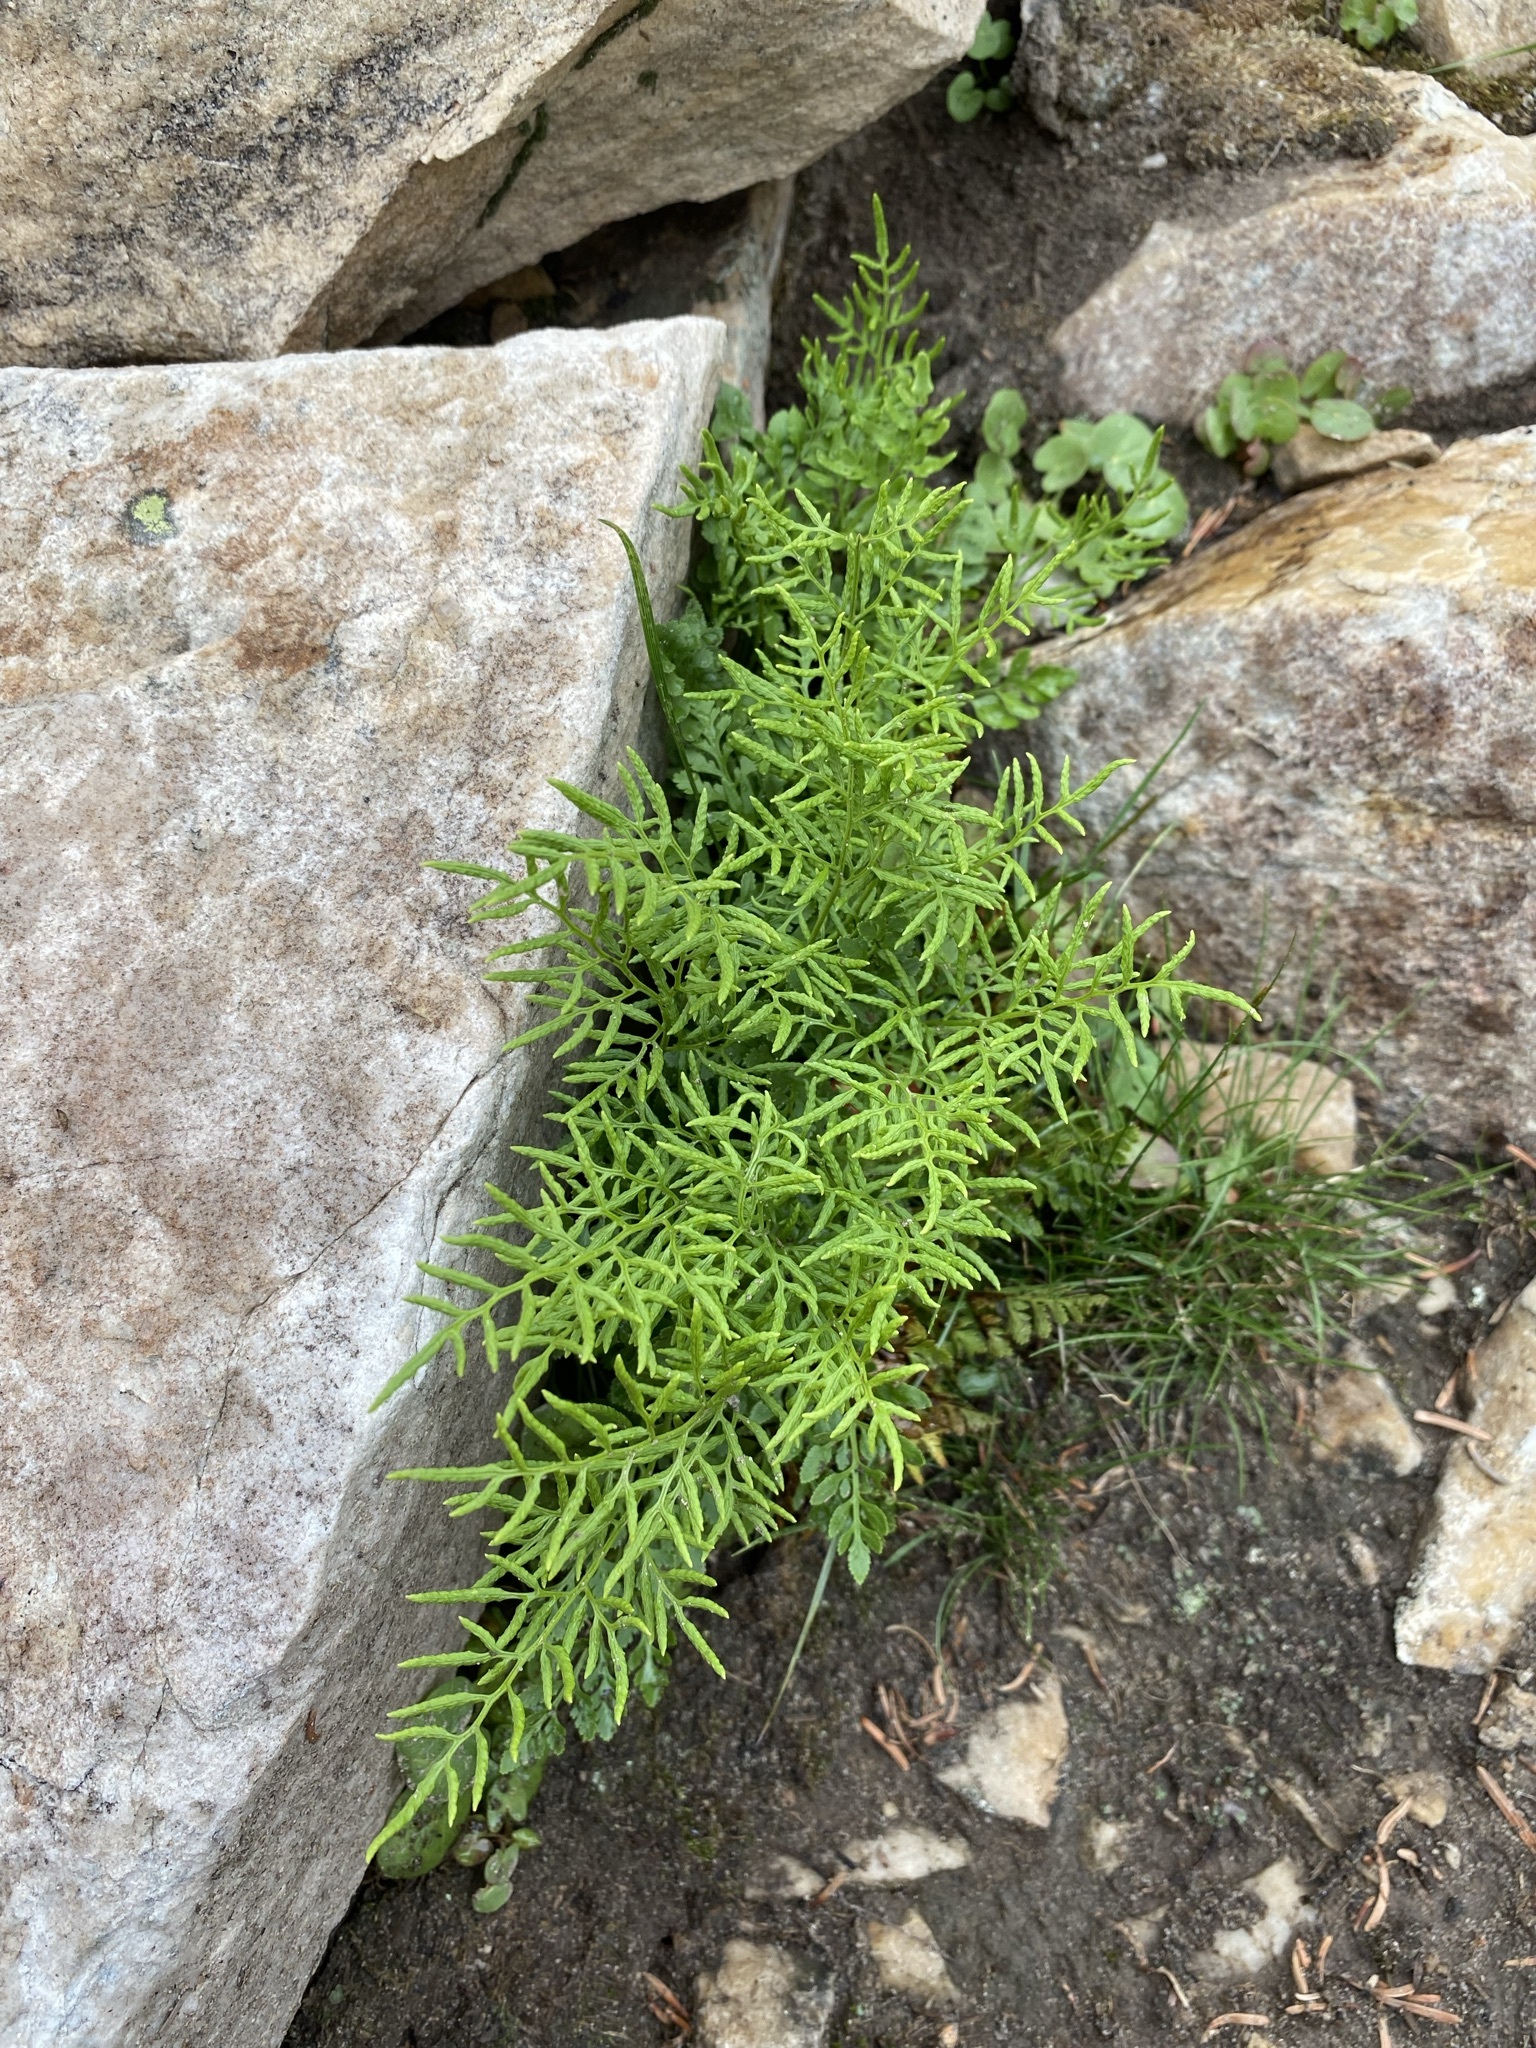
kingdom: Plantae
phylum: Tracheophyta
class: Polypodiopsida
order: Polypodiales
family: Pteridaceae
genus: Cryptogramma
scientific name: Cryptogramma acrostichoides
